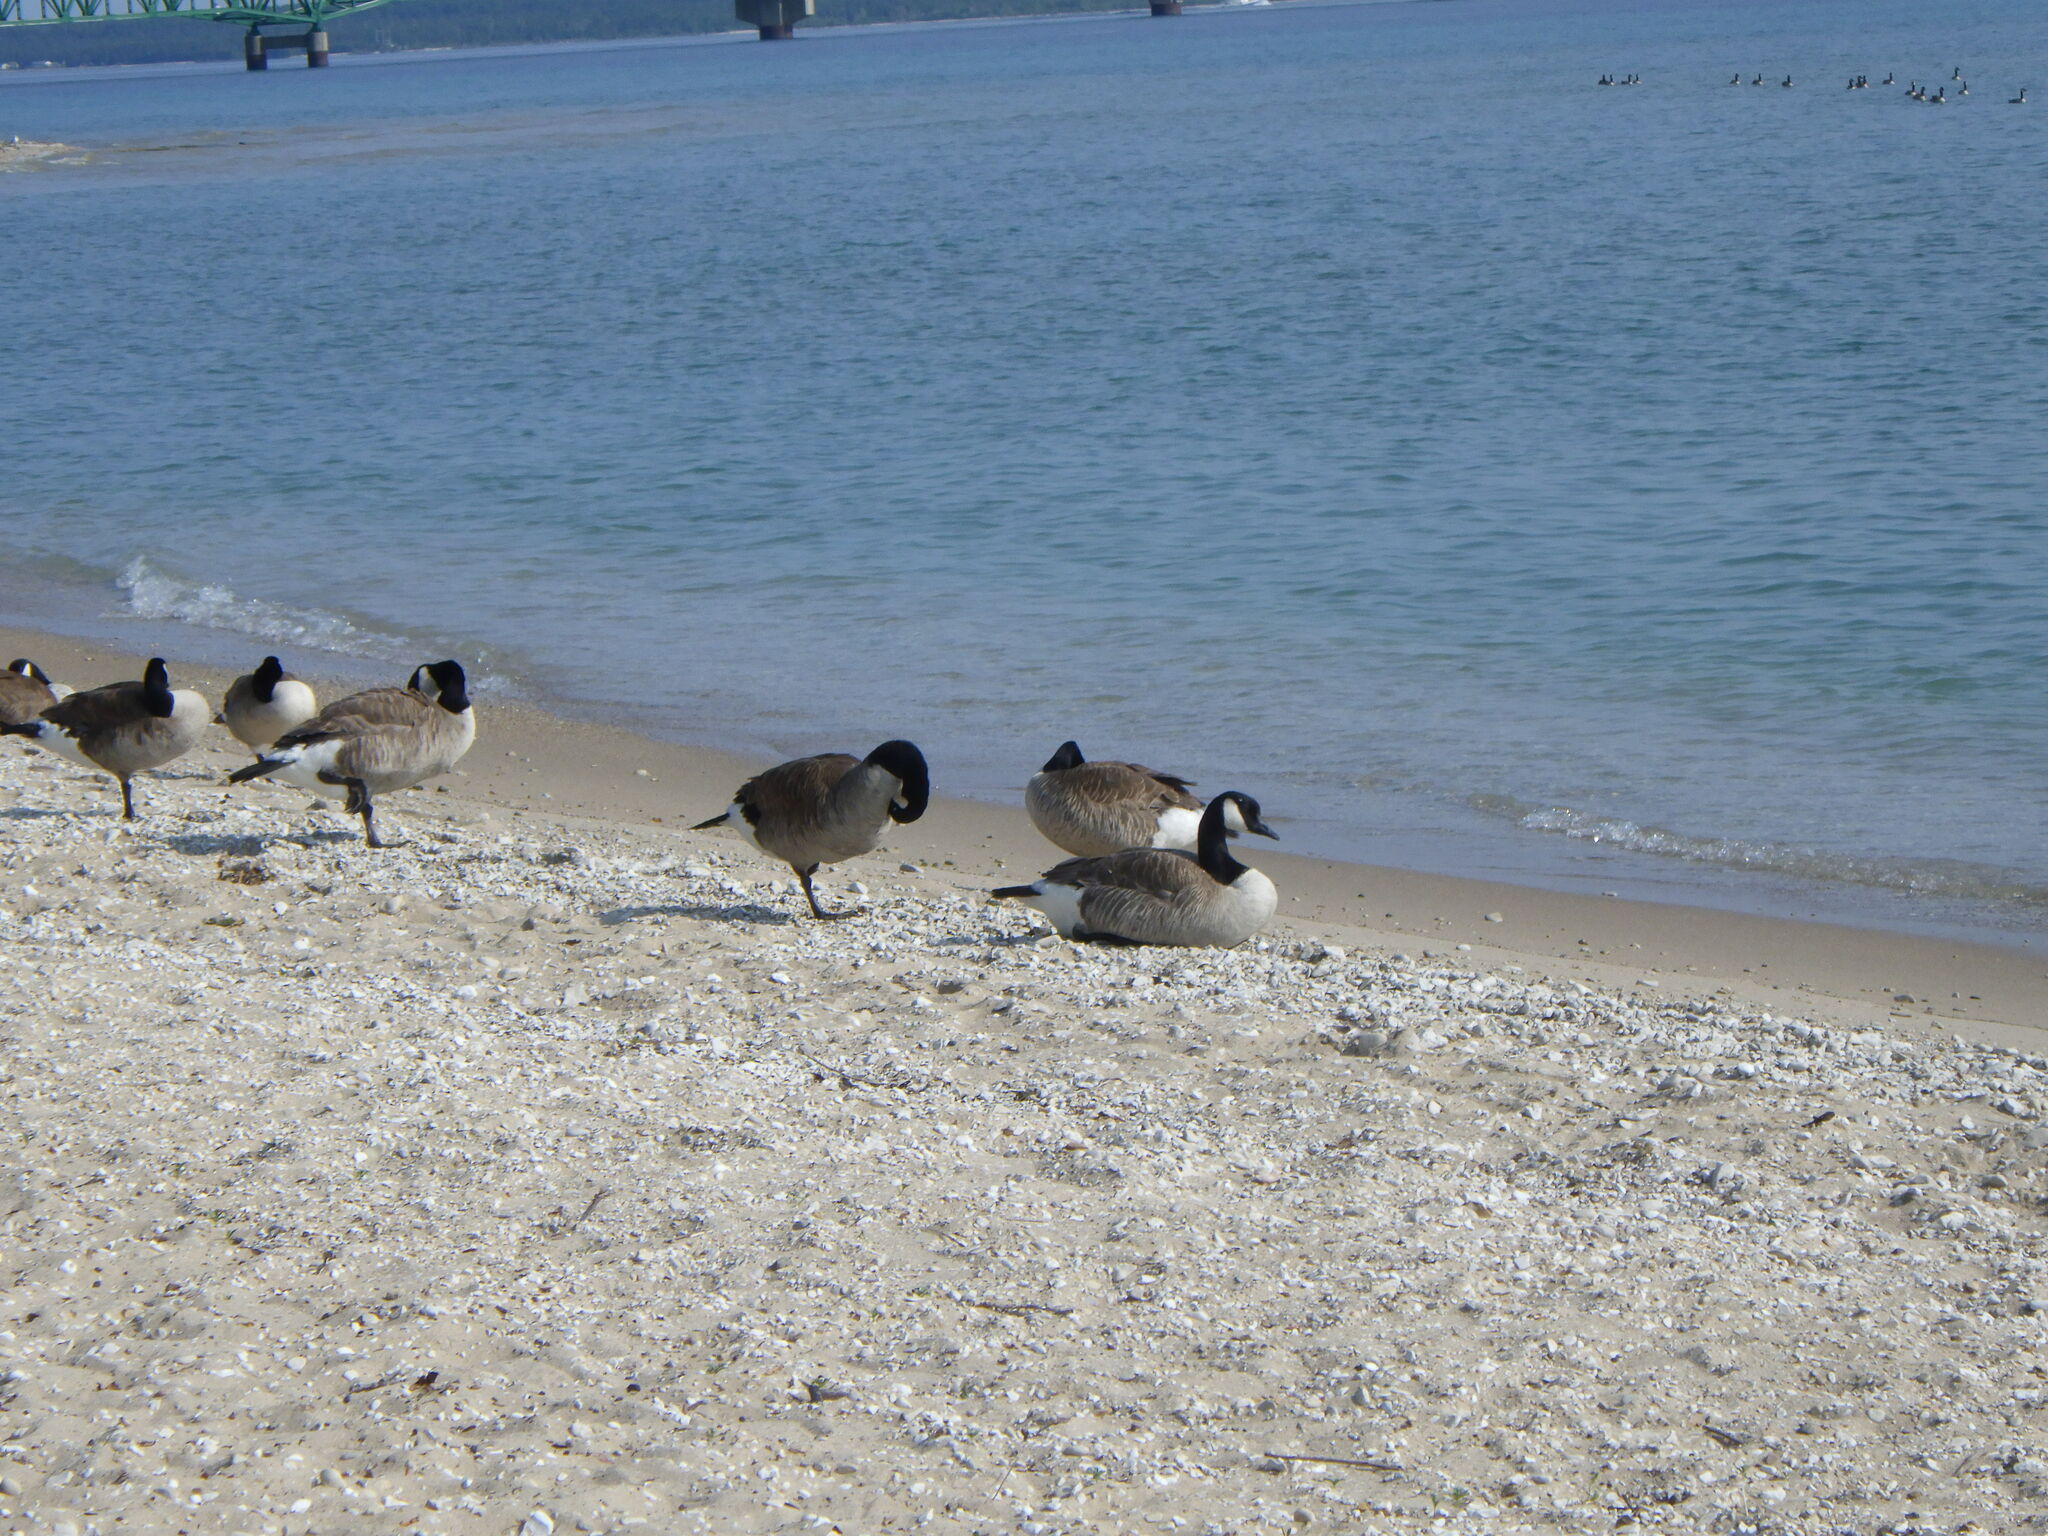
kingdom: Animalia
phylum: Chordata
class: Aves
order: Anseriformes
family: Anatidae
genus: Branta
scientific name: Branta canadensis
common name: Canada goose
